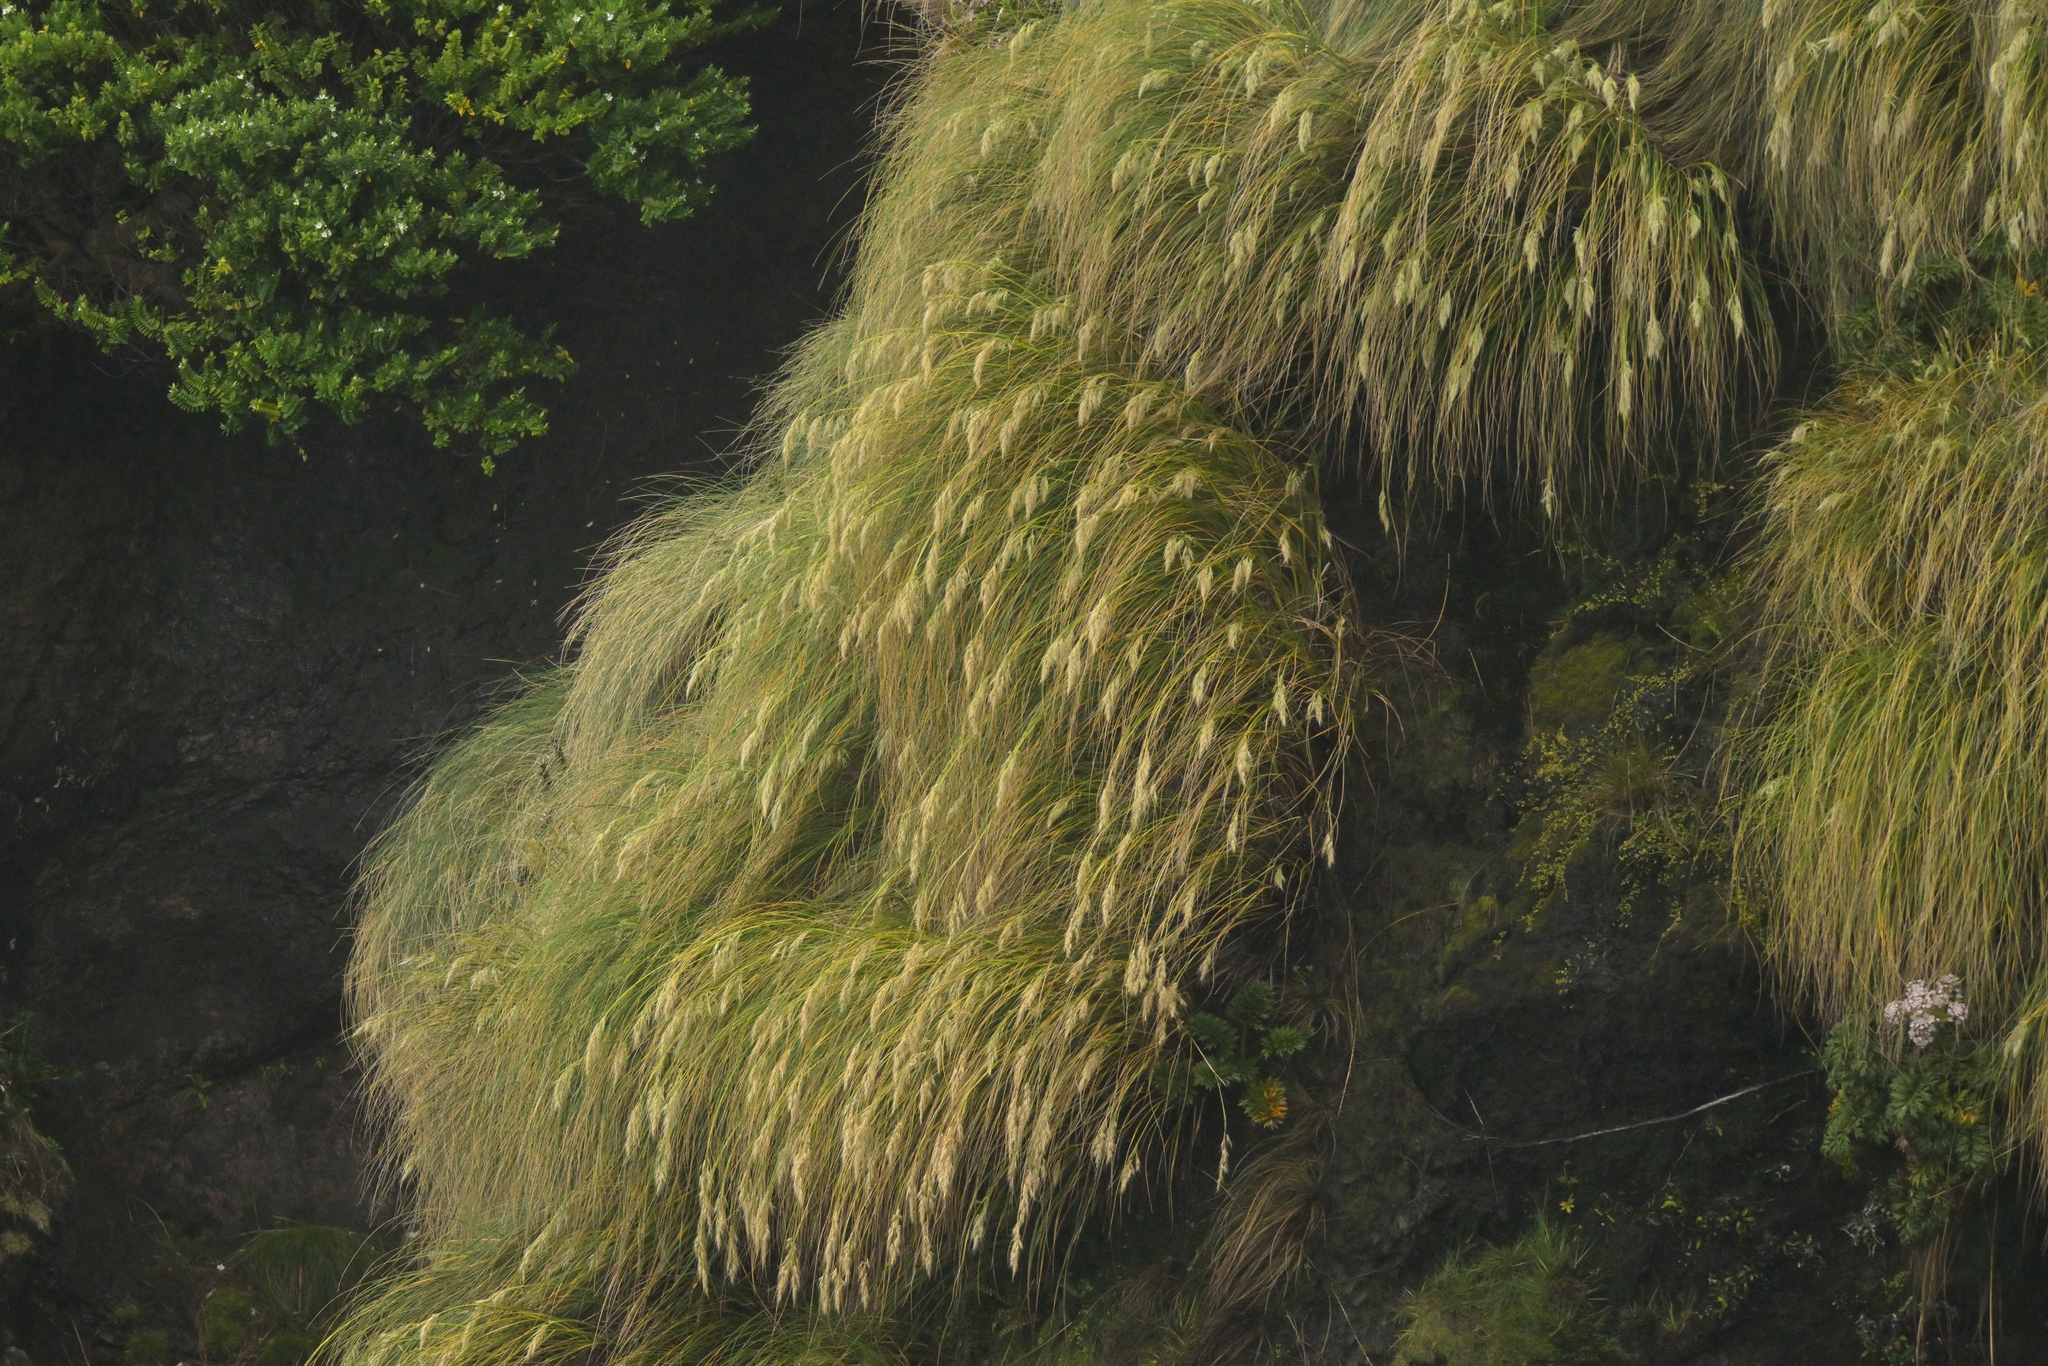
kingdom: Plantae
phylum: Tracheophyta
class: Liliopsida
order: Poales
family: Poaceae
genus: Chionochloa
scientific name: Chionochloa antarctica
